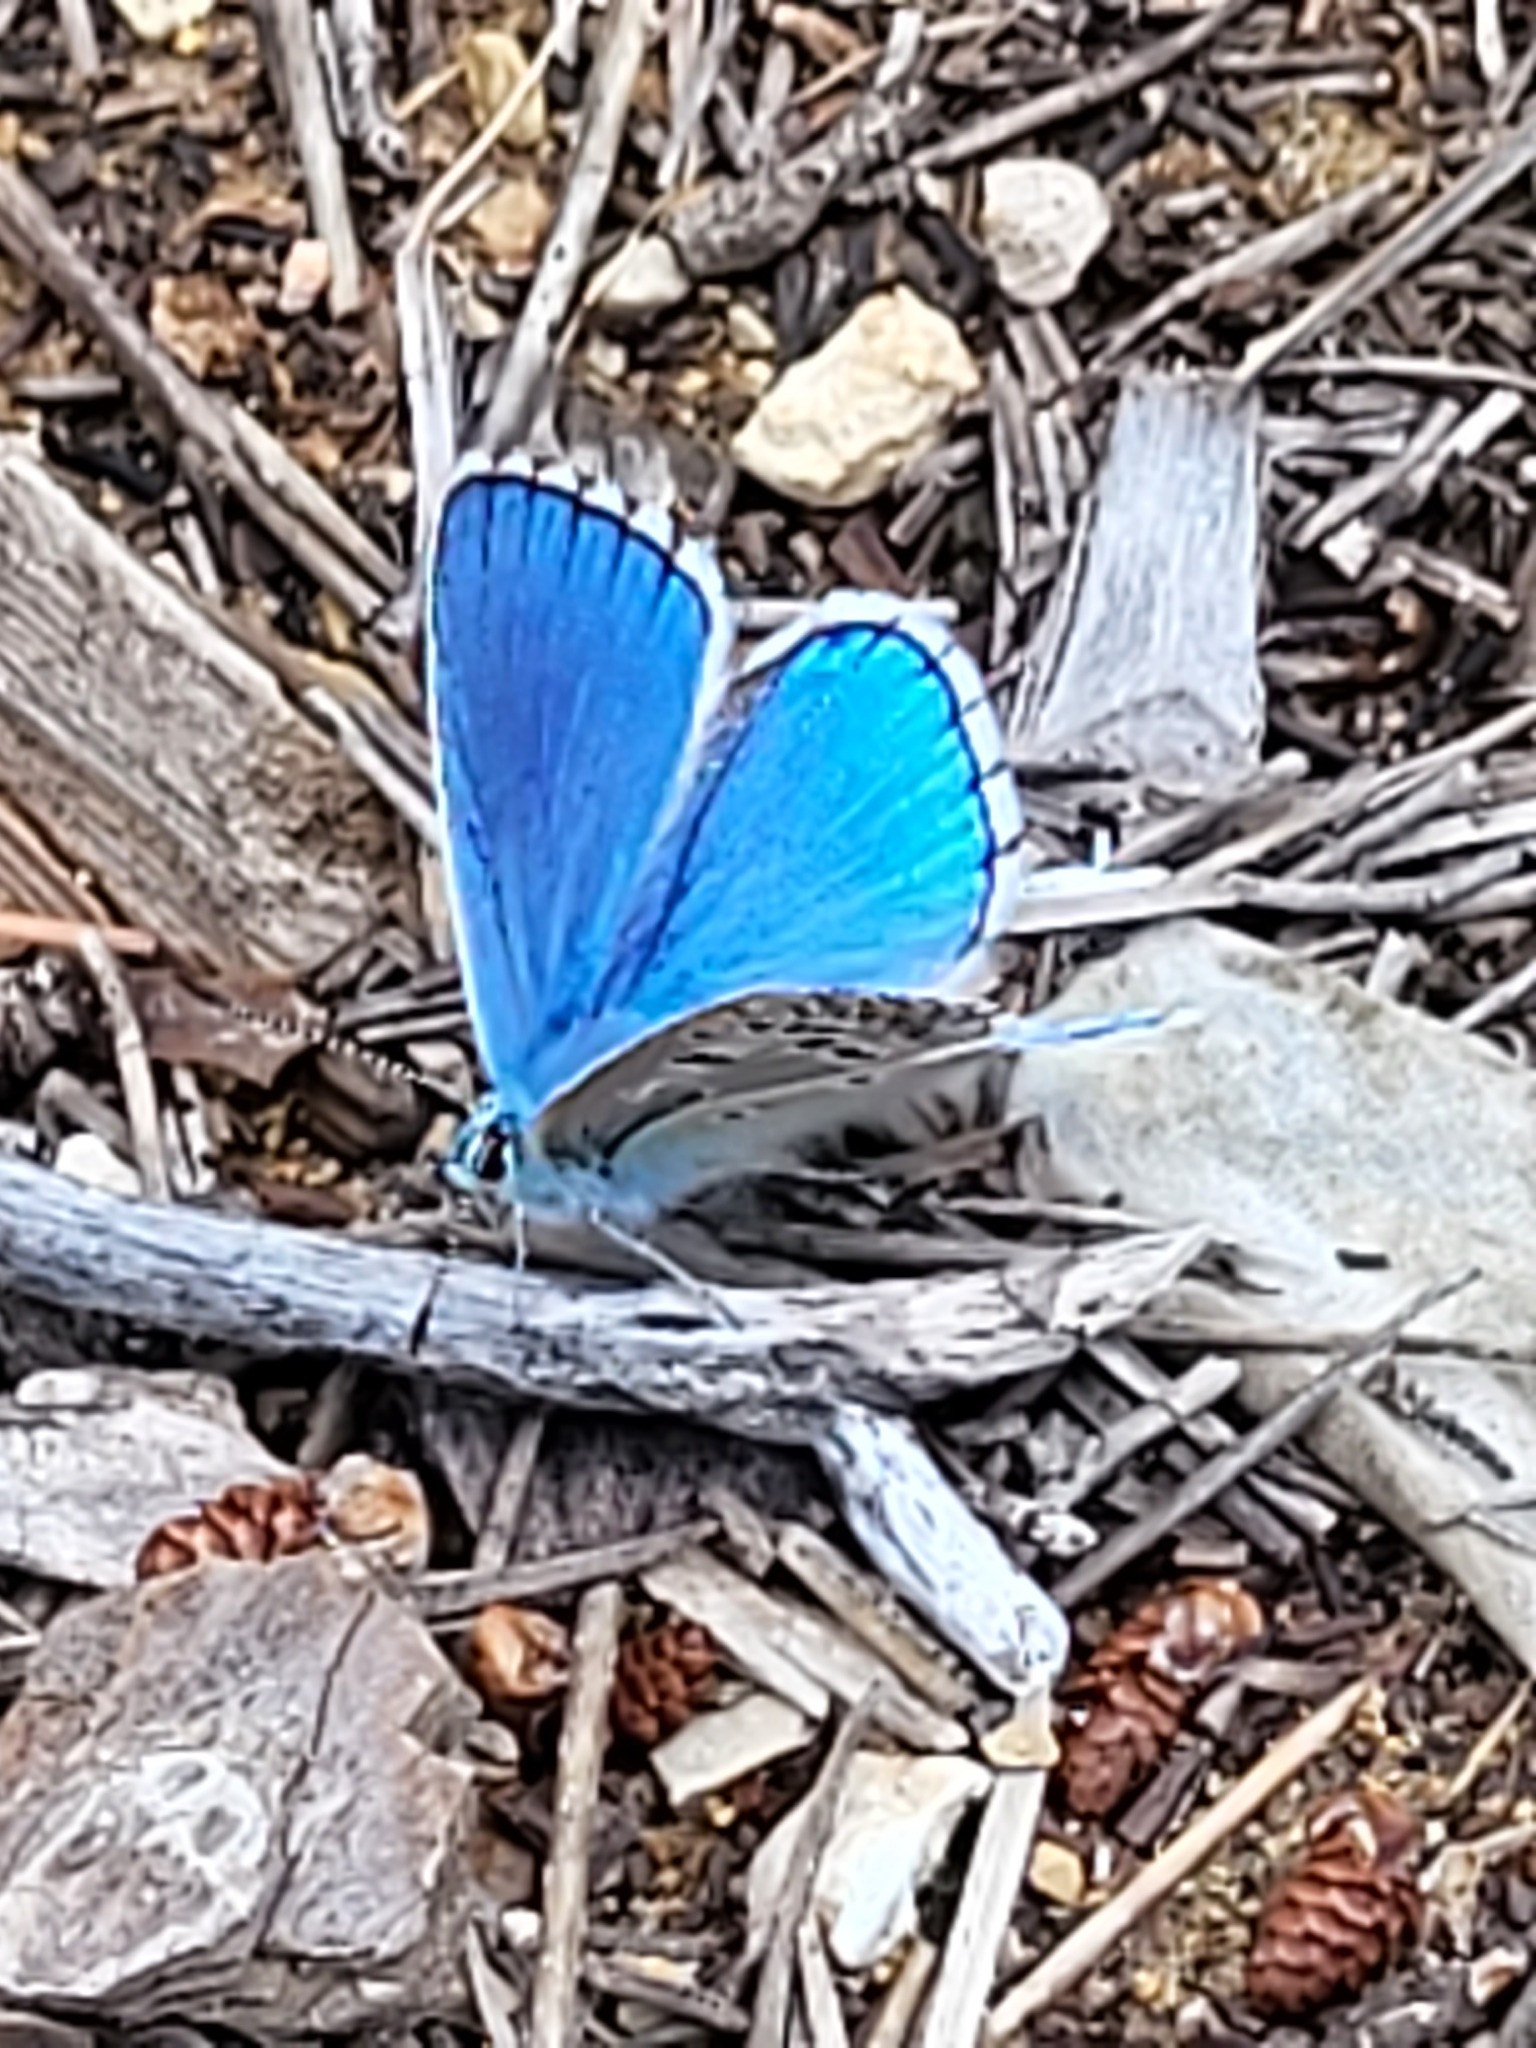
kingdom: Animalia
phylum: Arthropoda
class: Insecta
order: Lepidoptera
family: Lycaenidae
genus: Lysandra
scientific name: Lysandra bellargus
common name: Adonis blue
